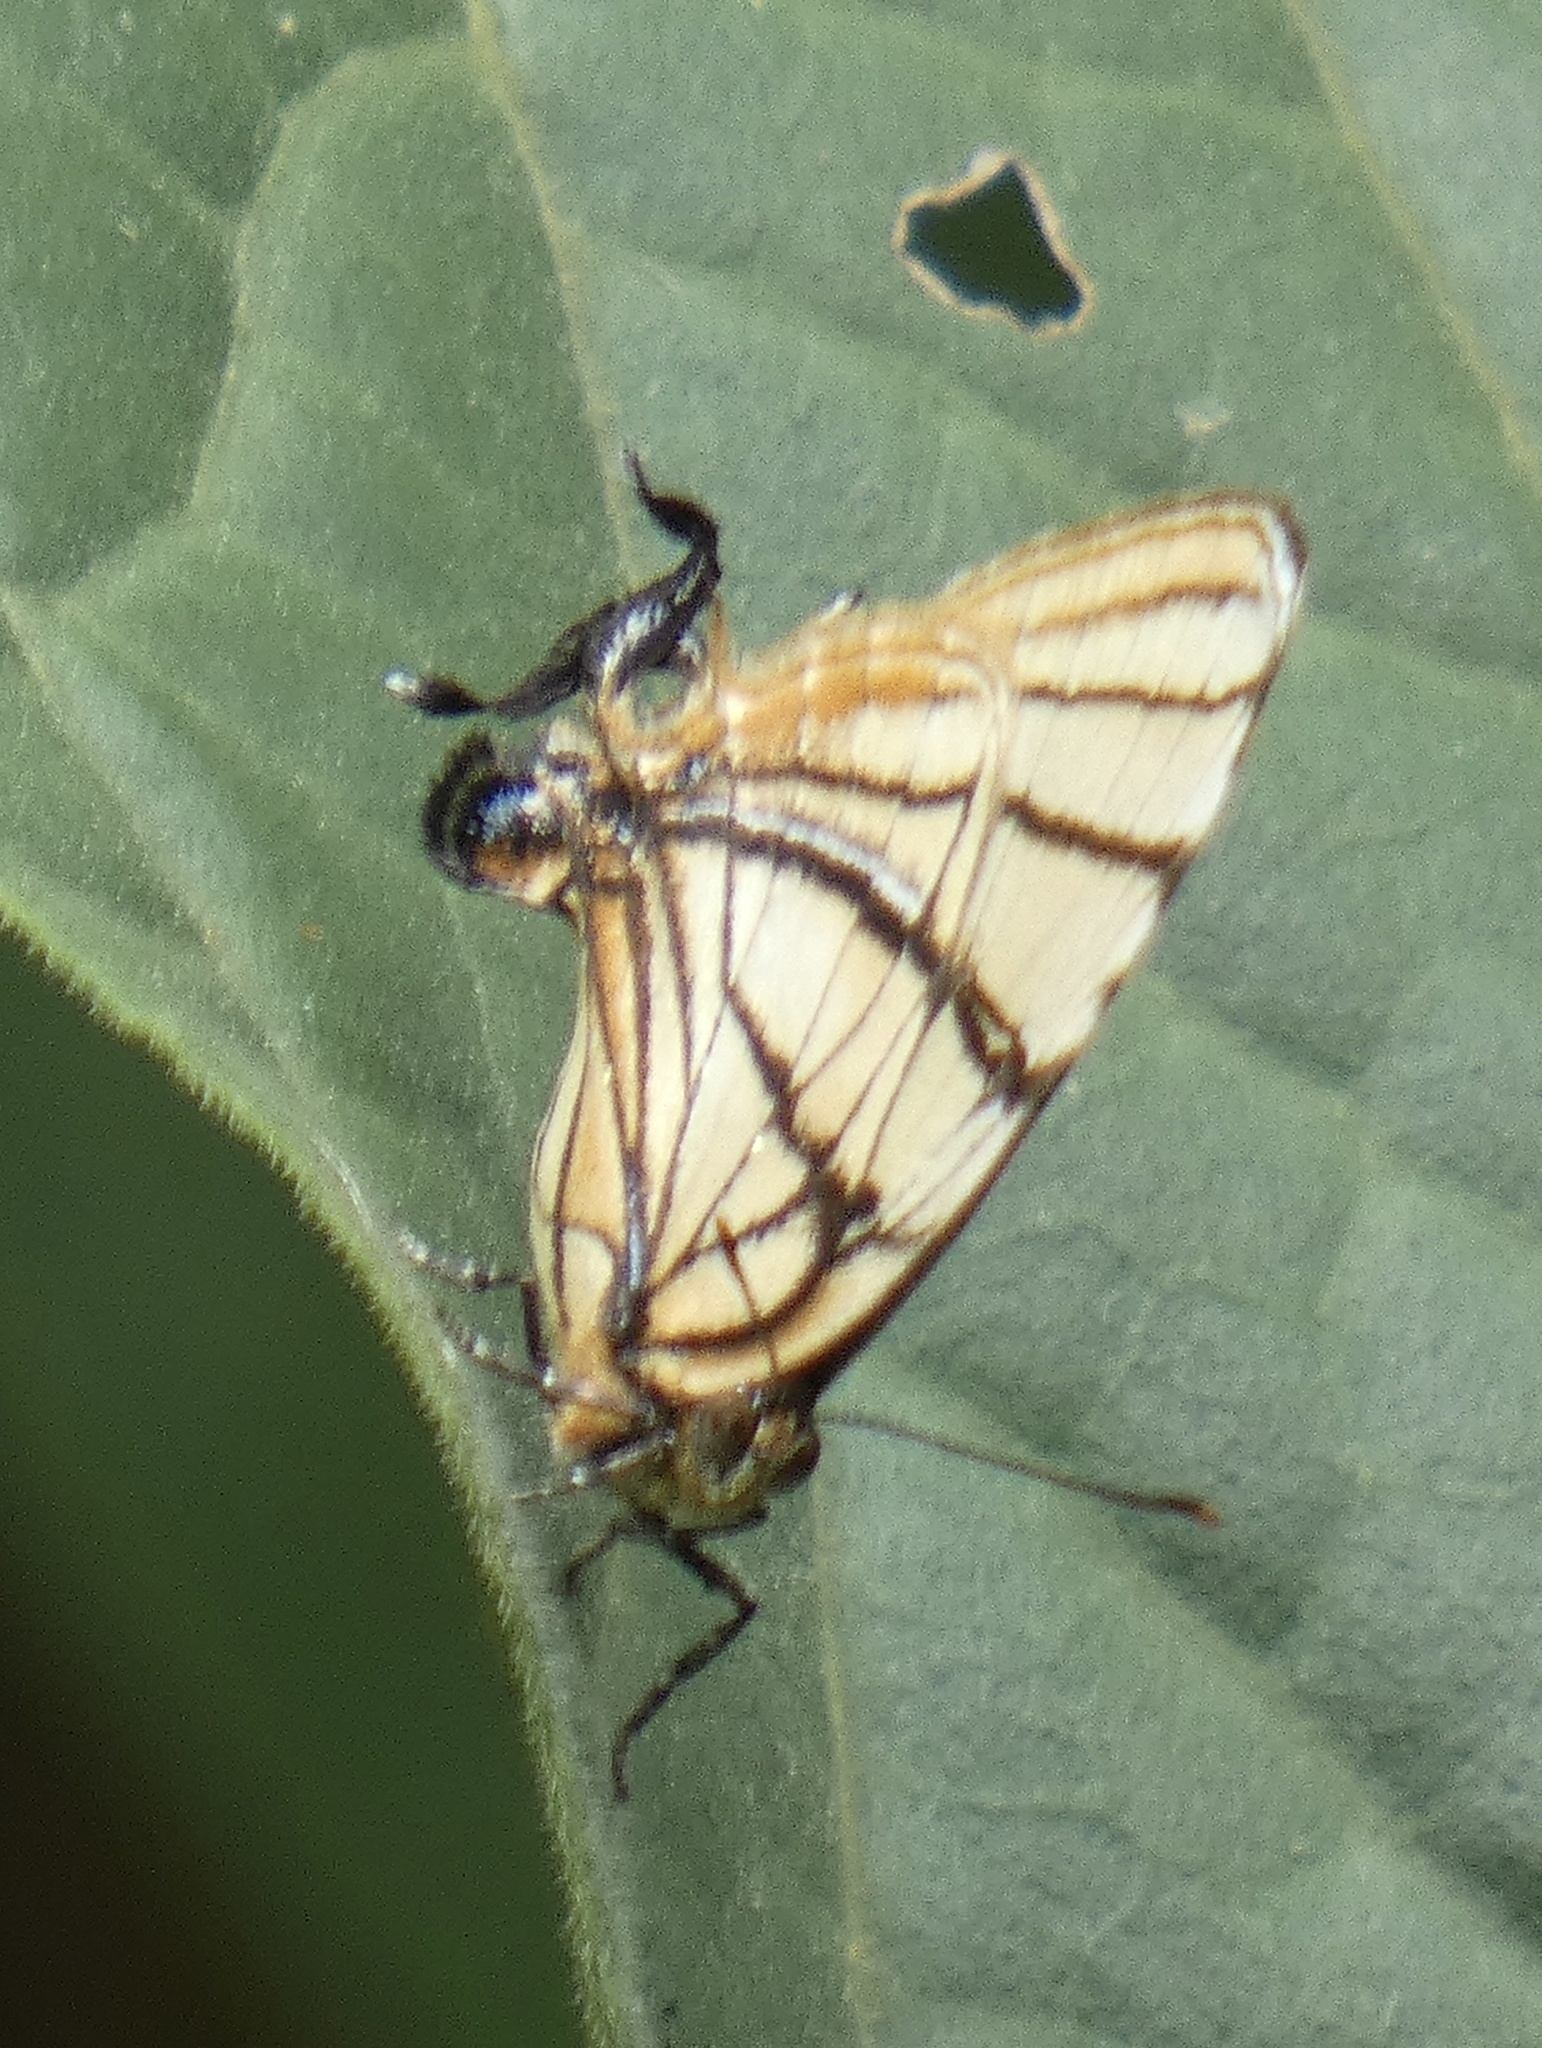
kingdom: Animalia
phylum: Arthropoda
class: Insecta
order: Lepidoptera
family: Lycaenidae
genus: Arawacus
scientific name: Arawacus melibaeus
